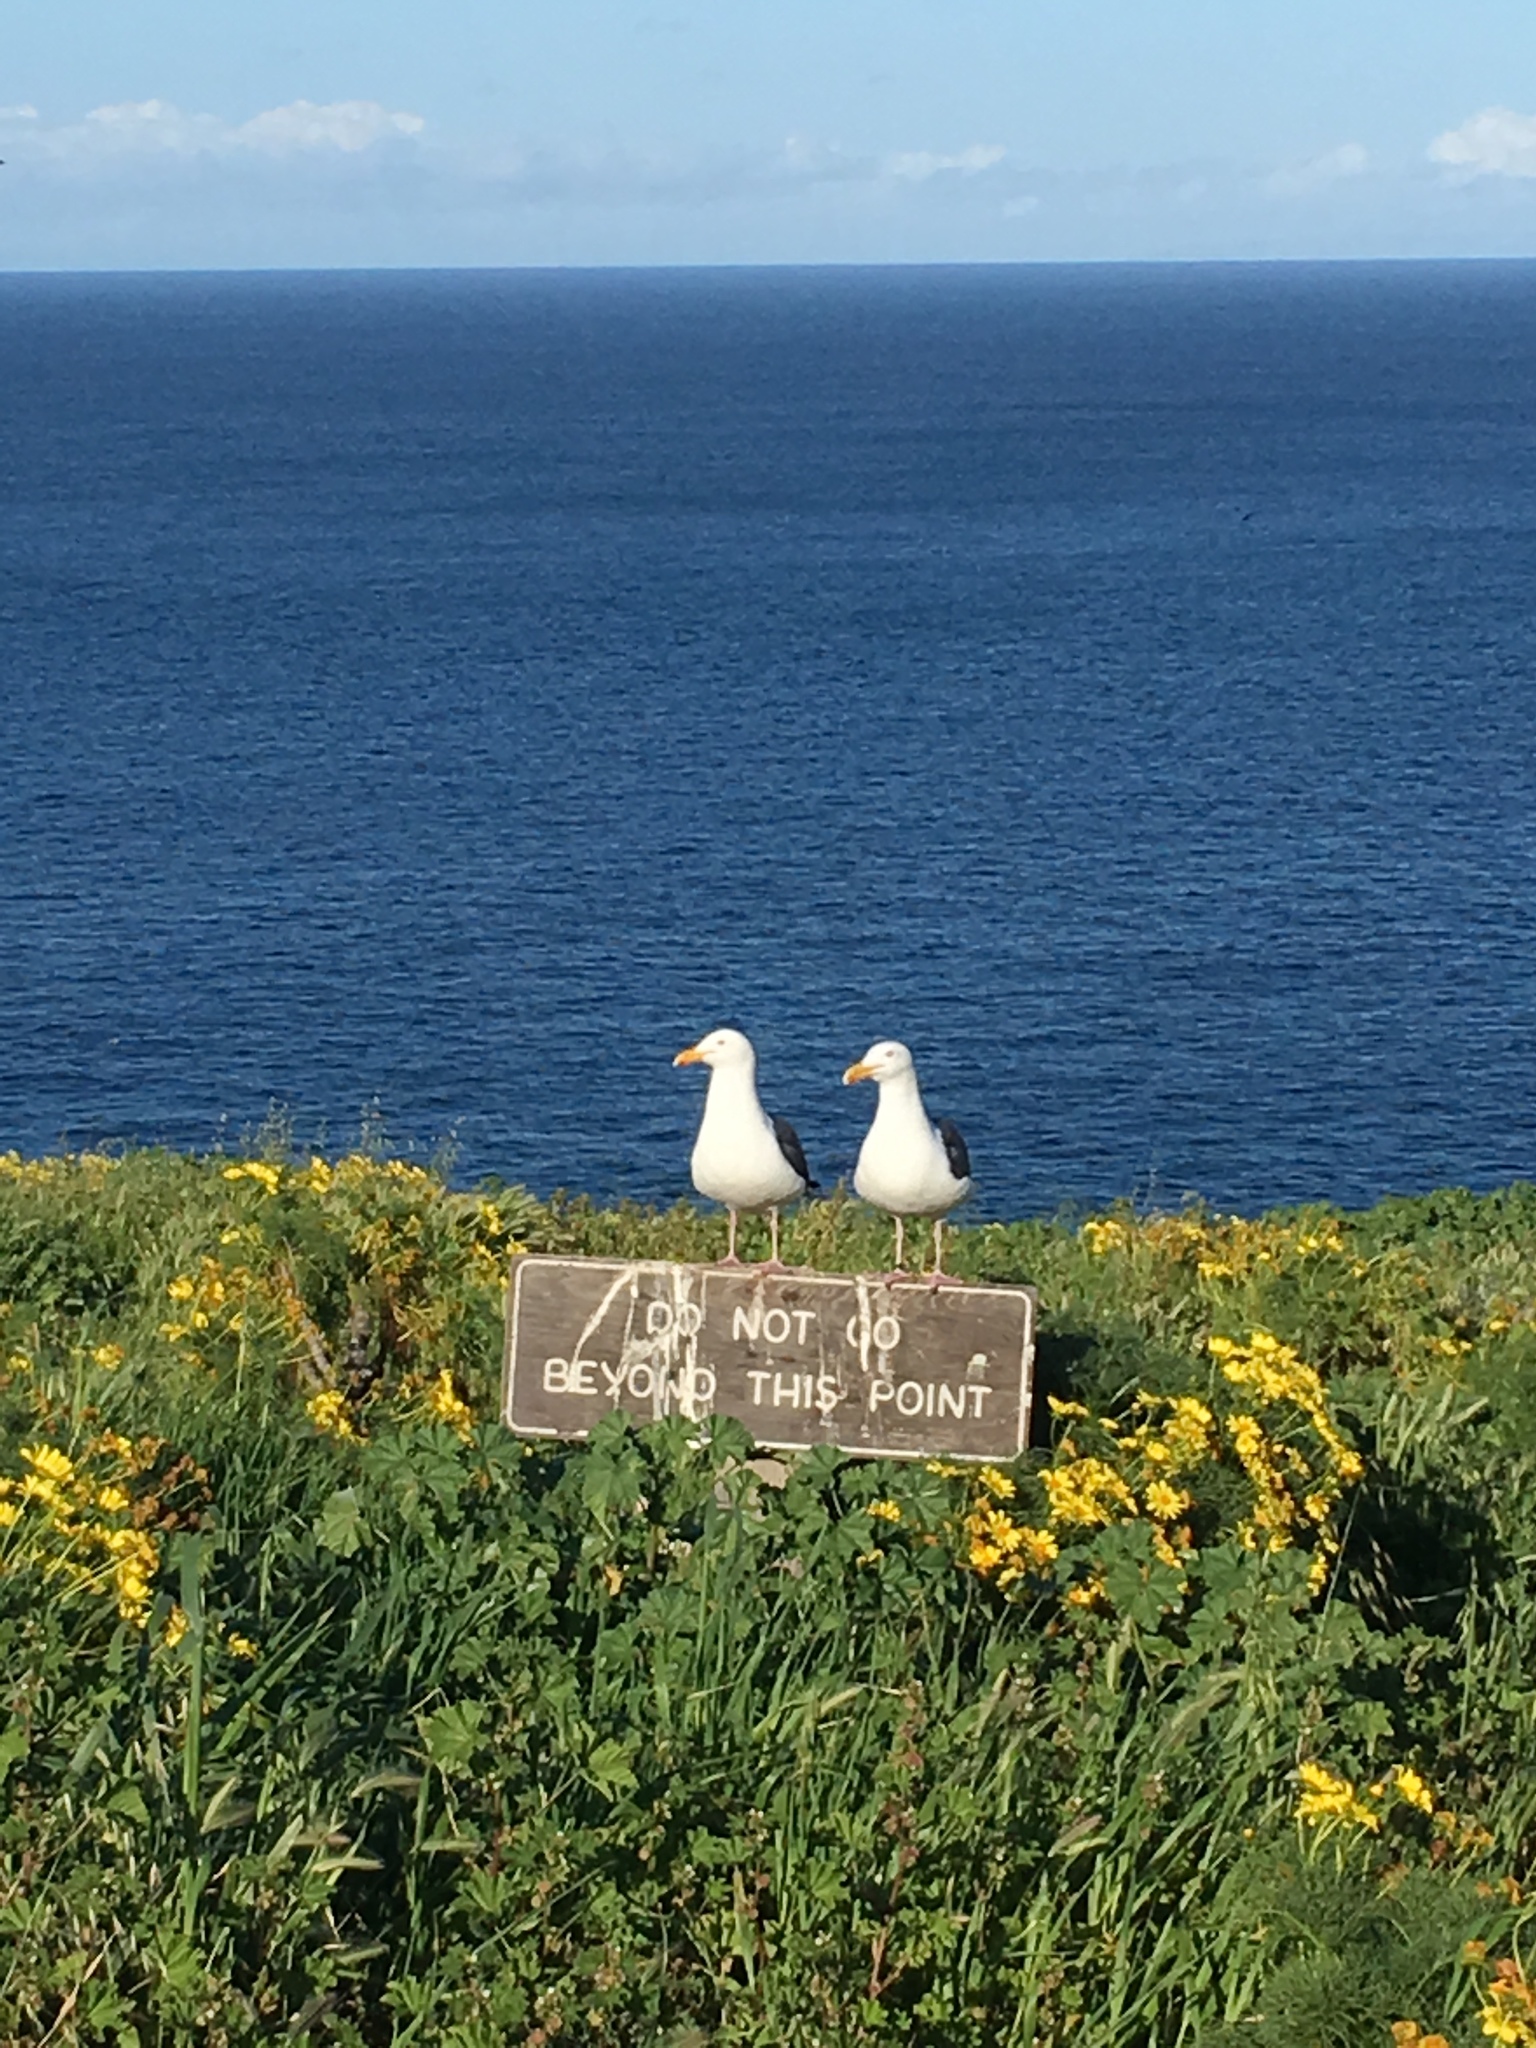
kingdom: Animalia
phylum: Chordata
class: Aves
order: Charadriiformes
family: Laridae
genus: Larus
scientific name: Larus occidentalis
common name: Western gull
